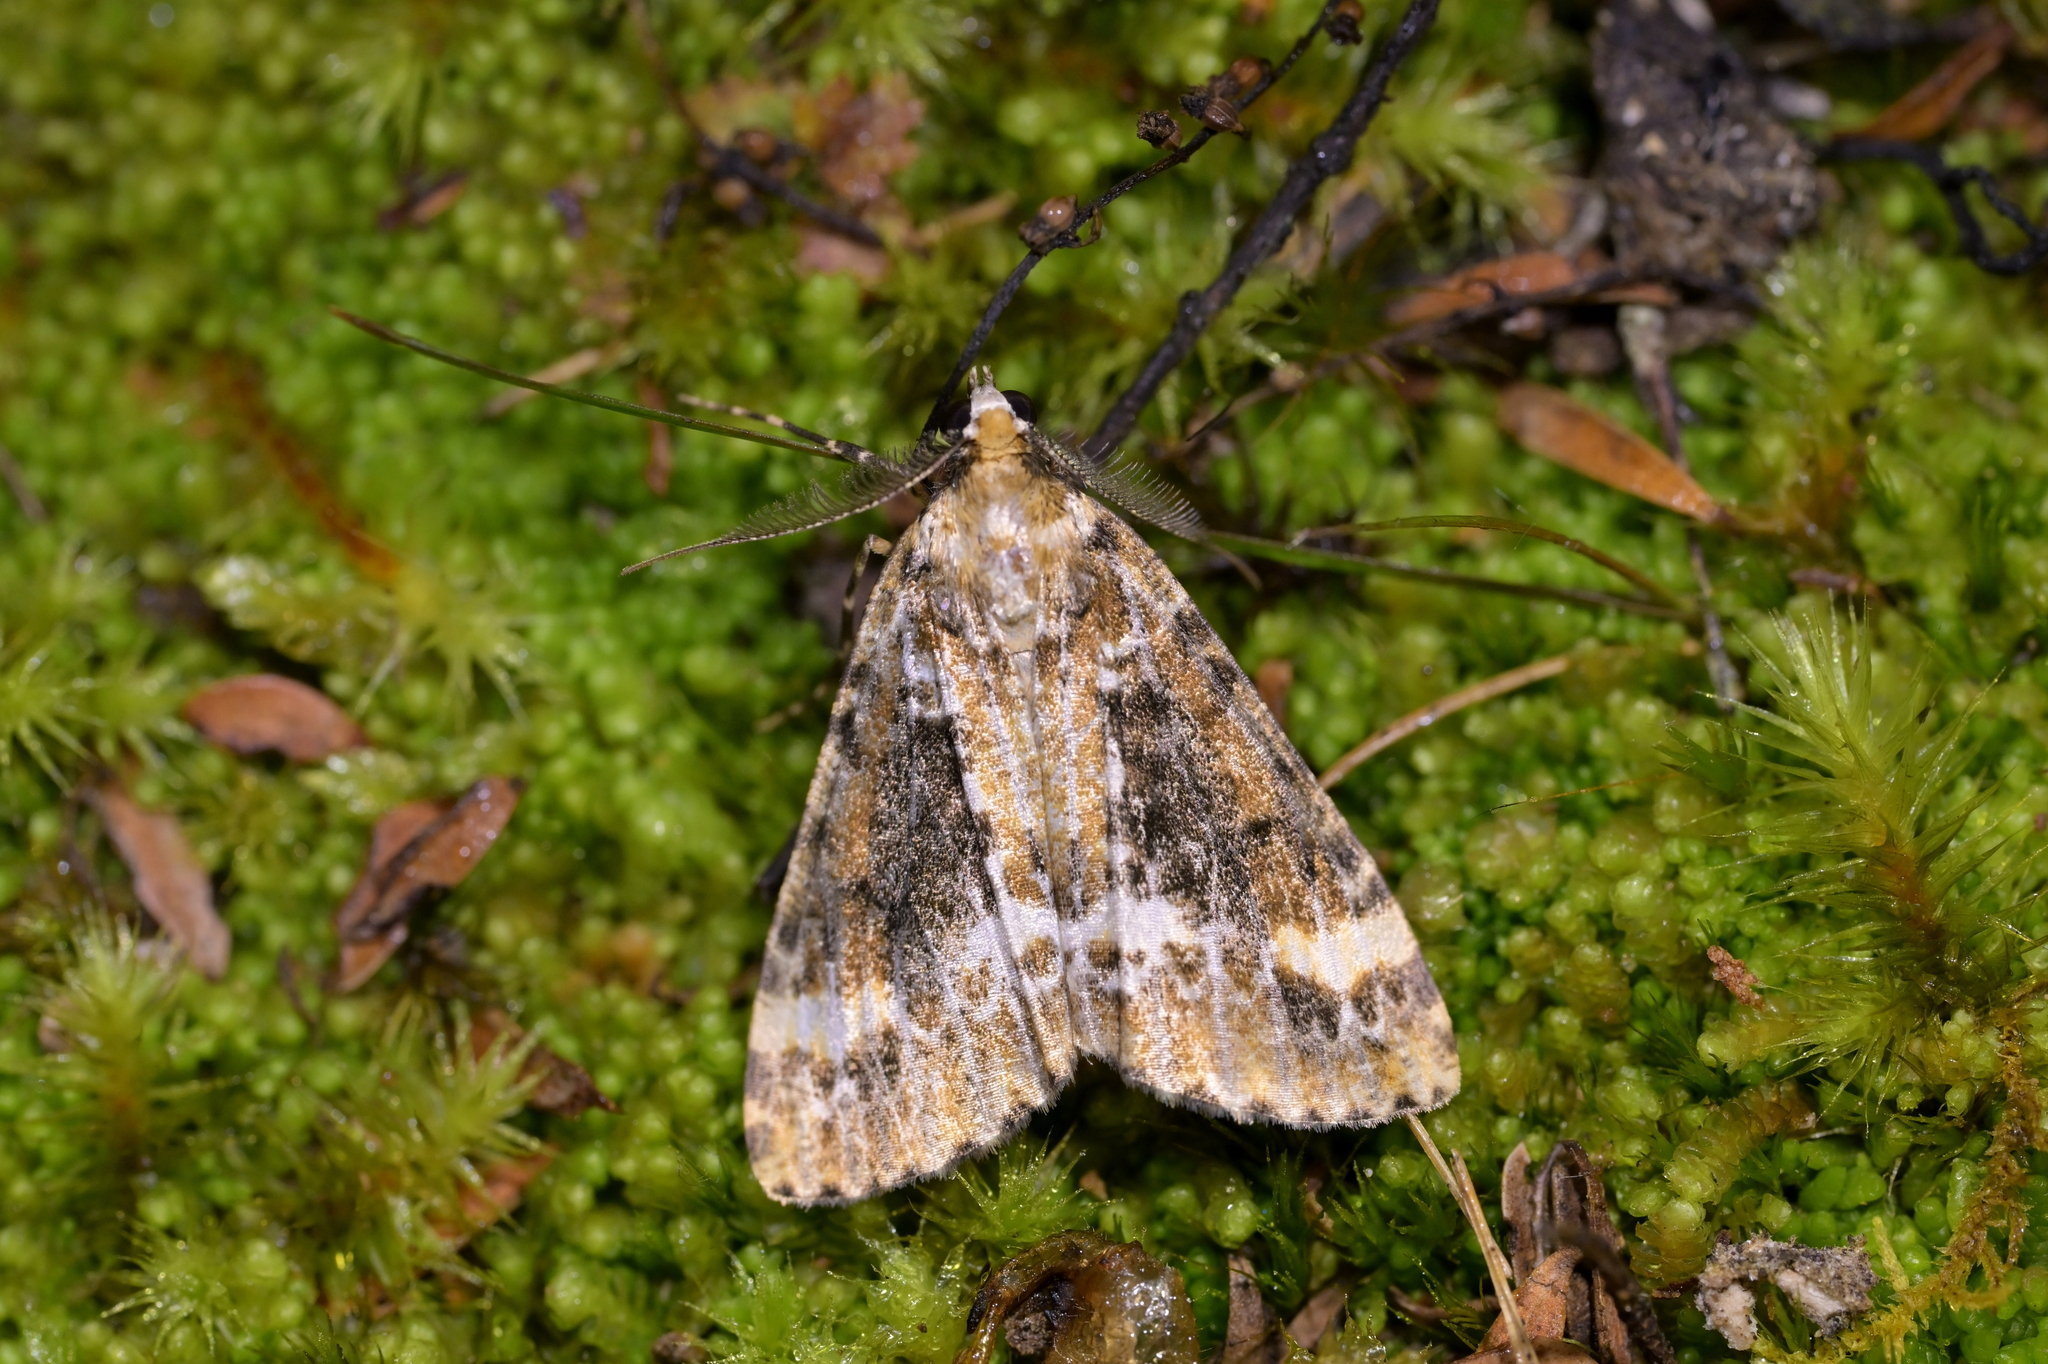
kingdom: Animalia
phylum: Arthropoda
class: Insecta
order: Lepidoptera
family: Geometridae
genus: Pseudocoremia
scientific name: Pseudocoremia leucelaea
